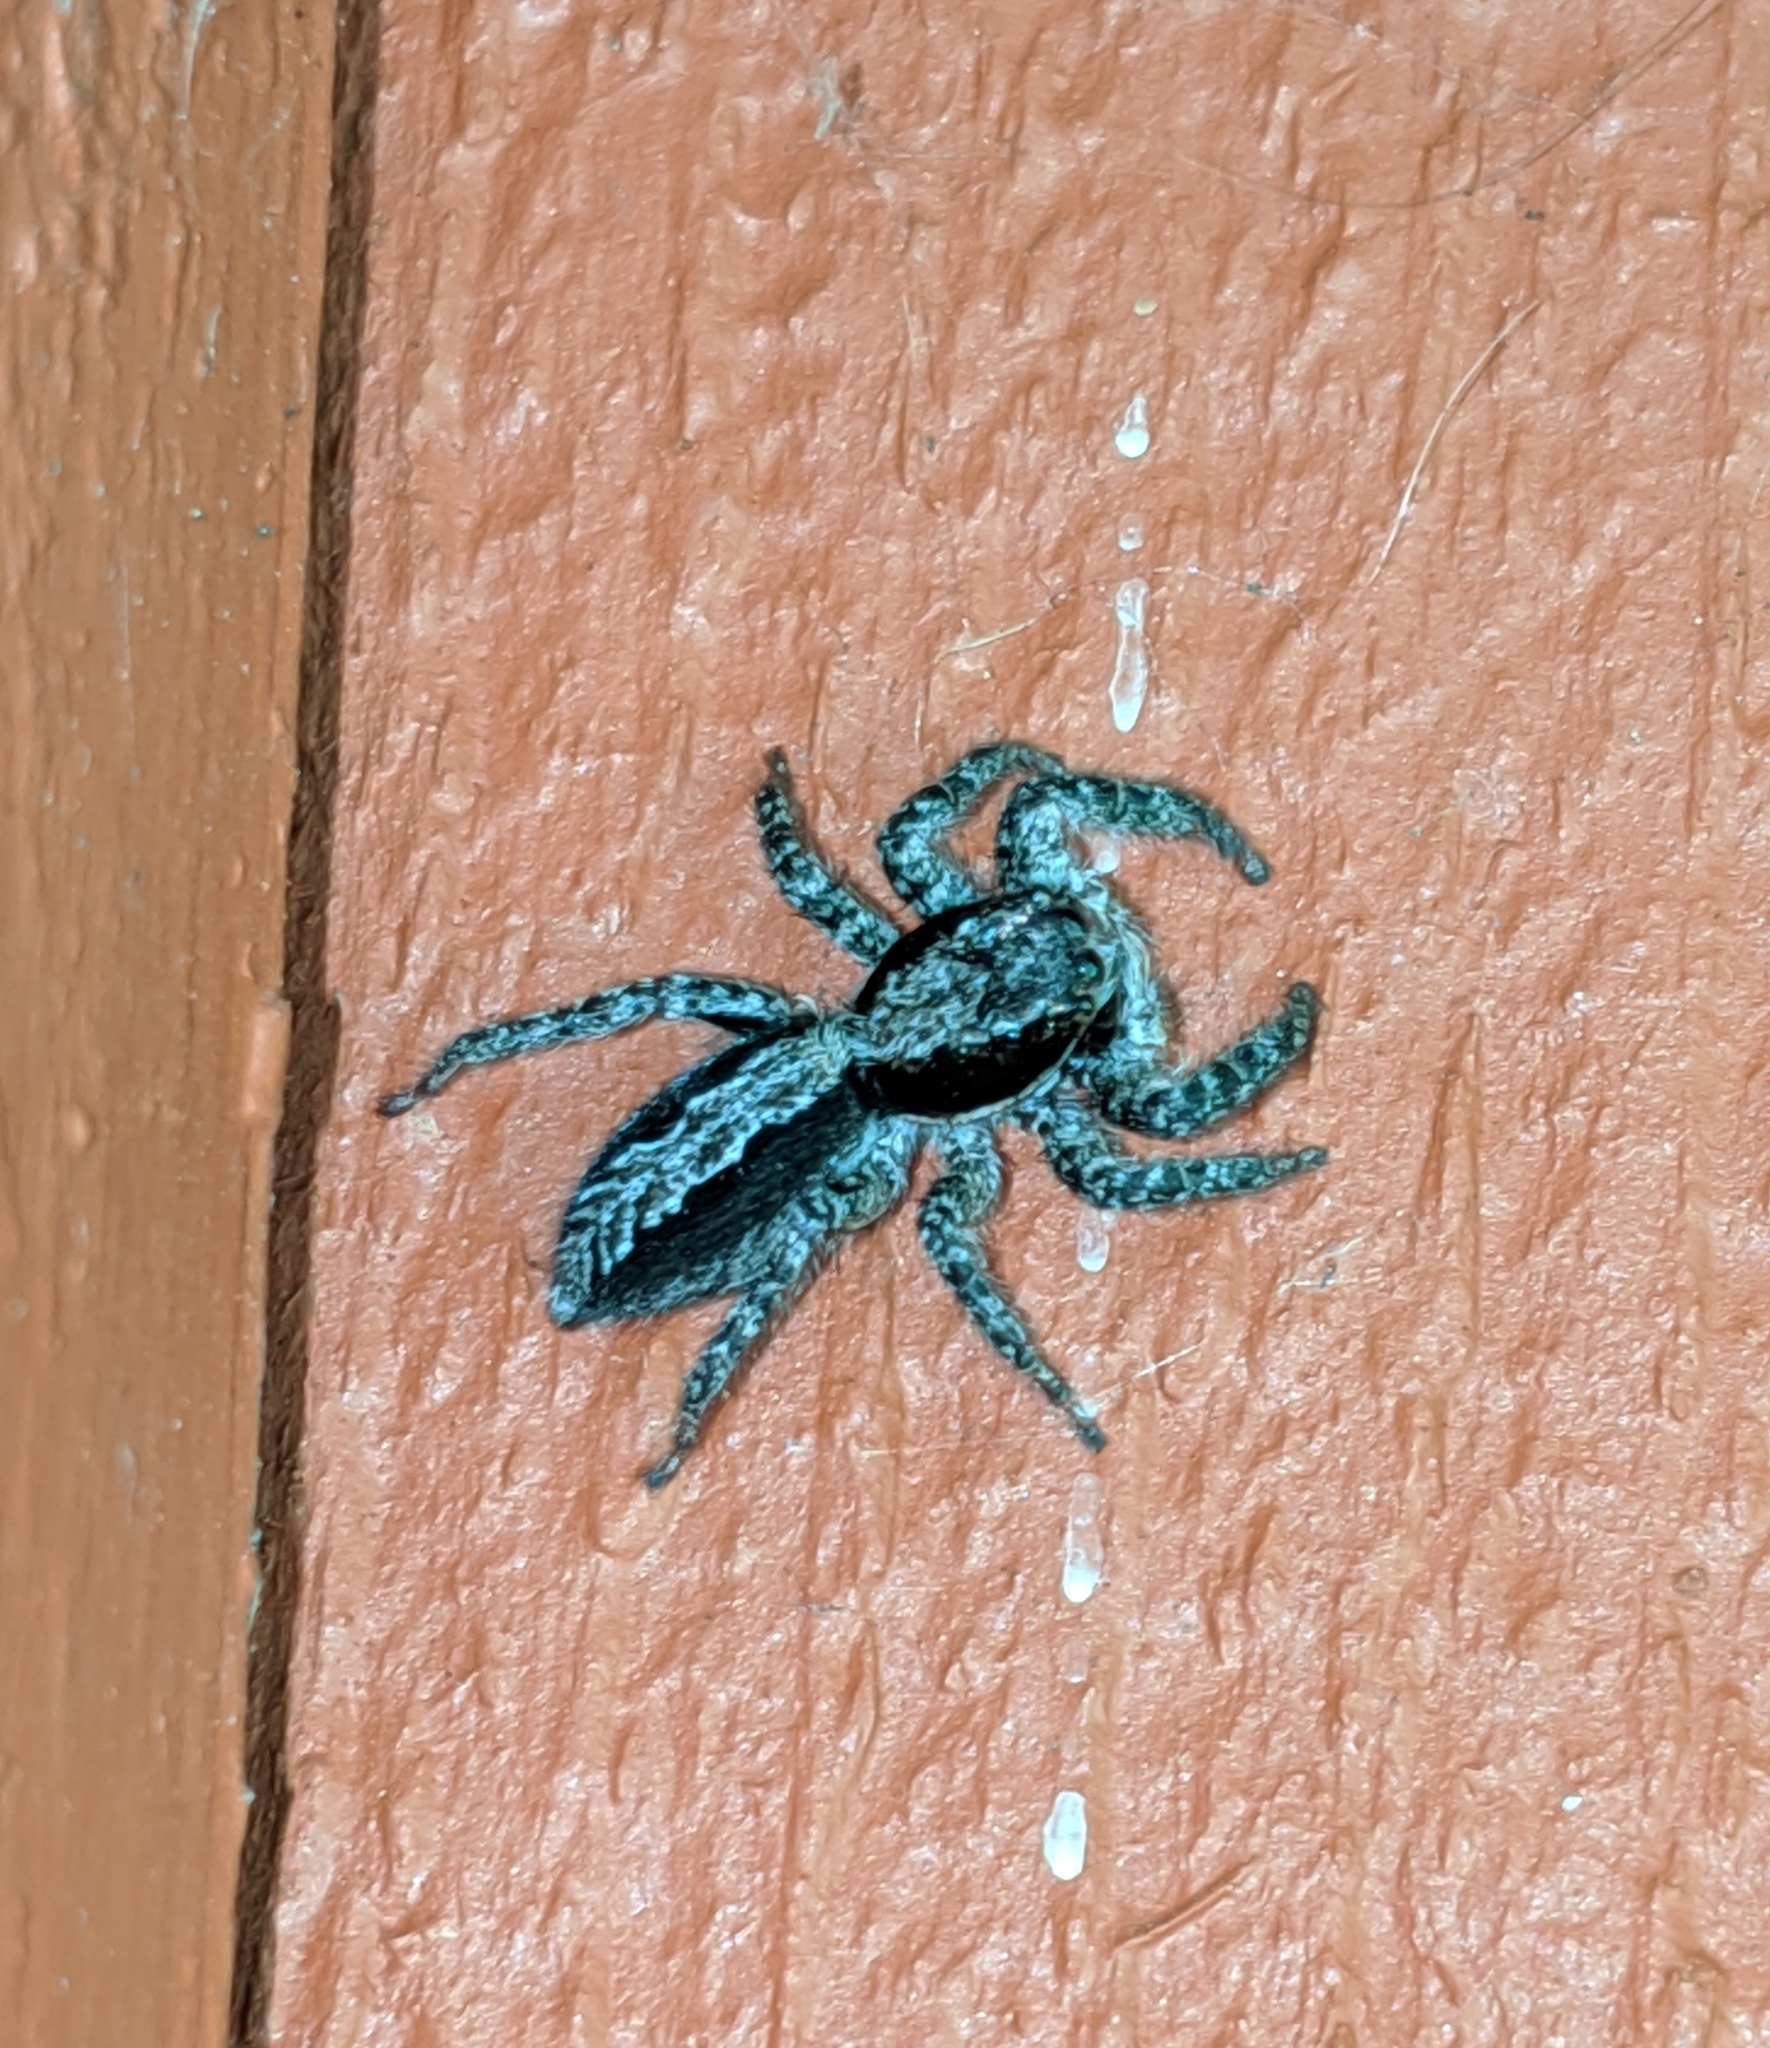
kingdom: Animalia
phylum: Arthropoda
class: Arachnida
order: Araneae
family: Salticidae
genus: Platycryptus
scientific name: Platycryptus californicus
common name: Jumping spiders
